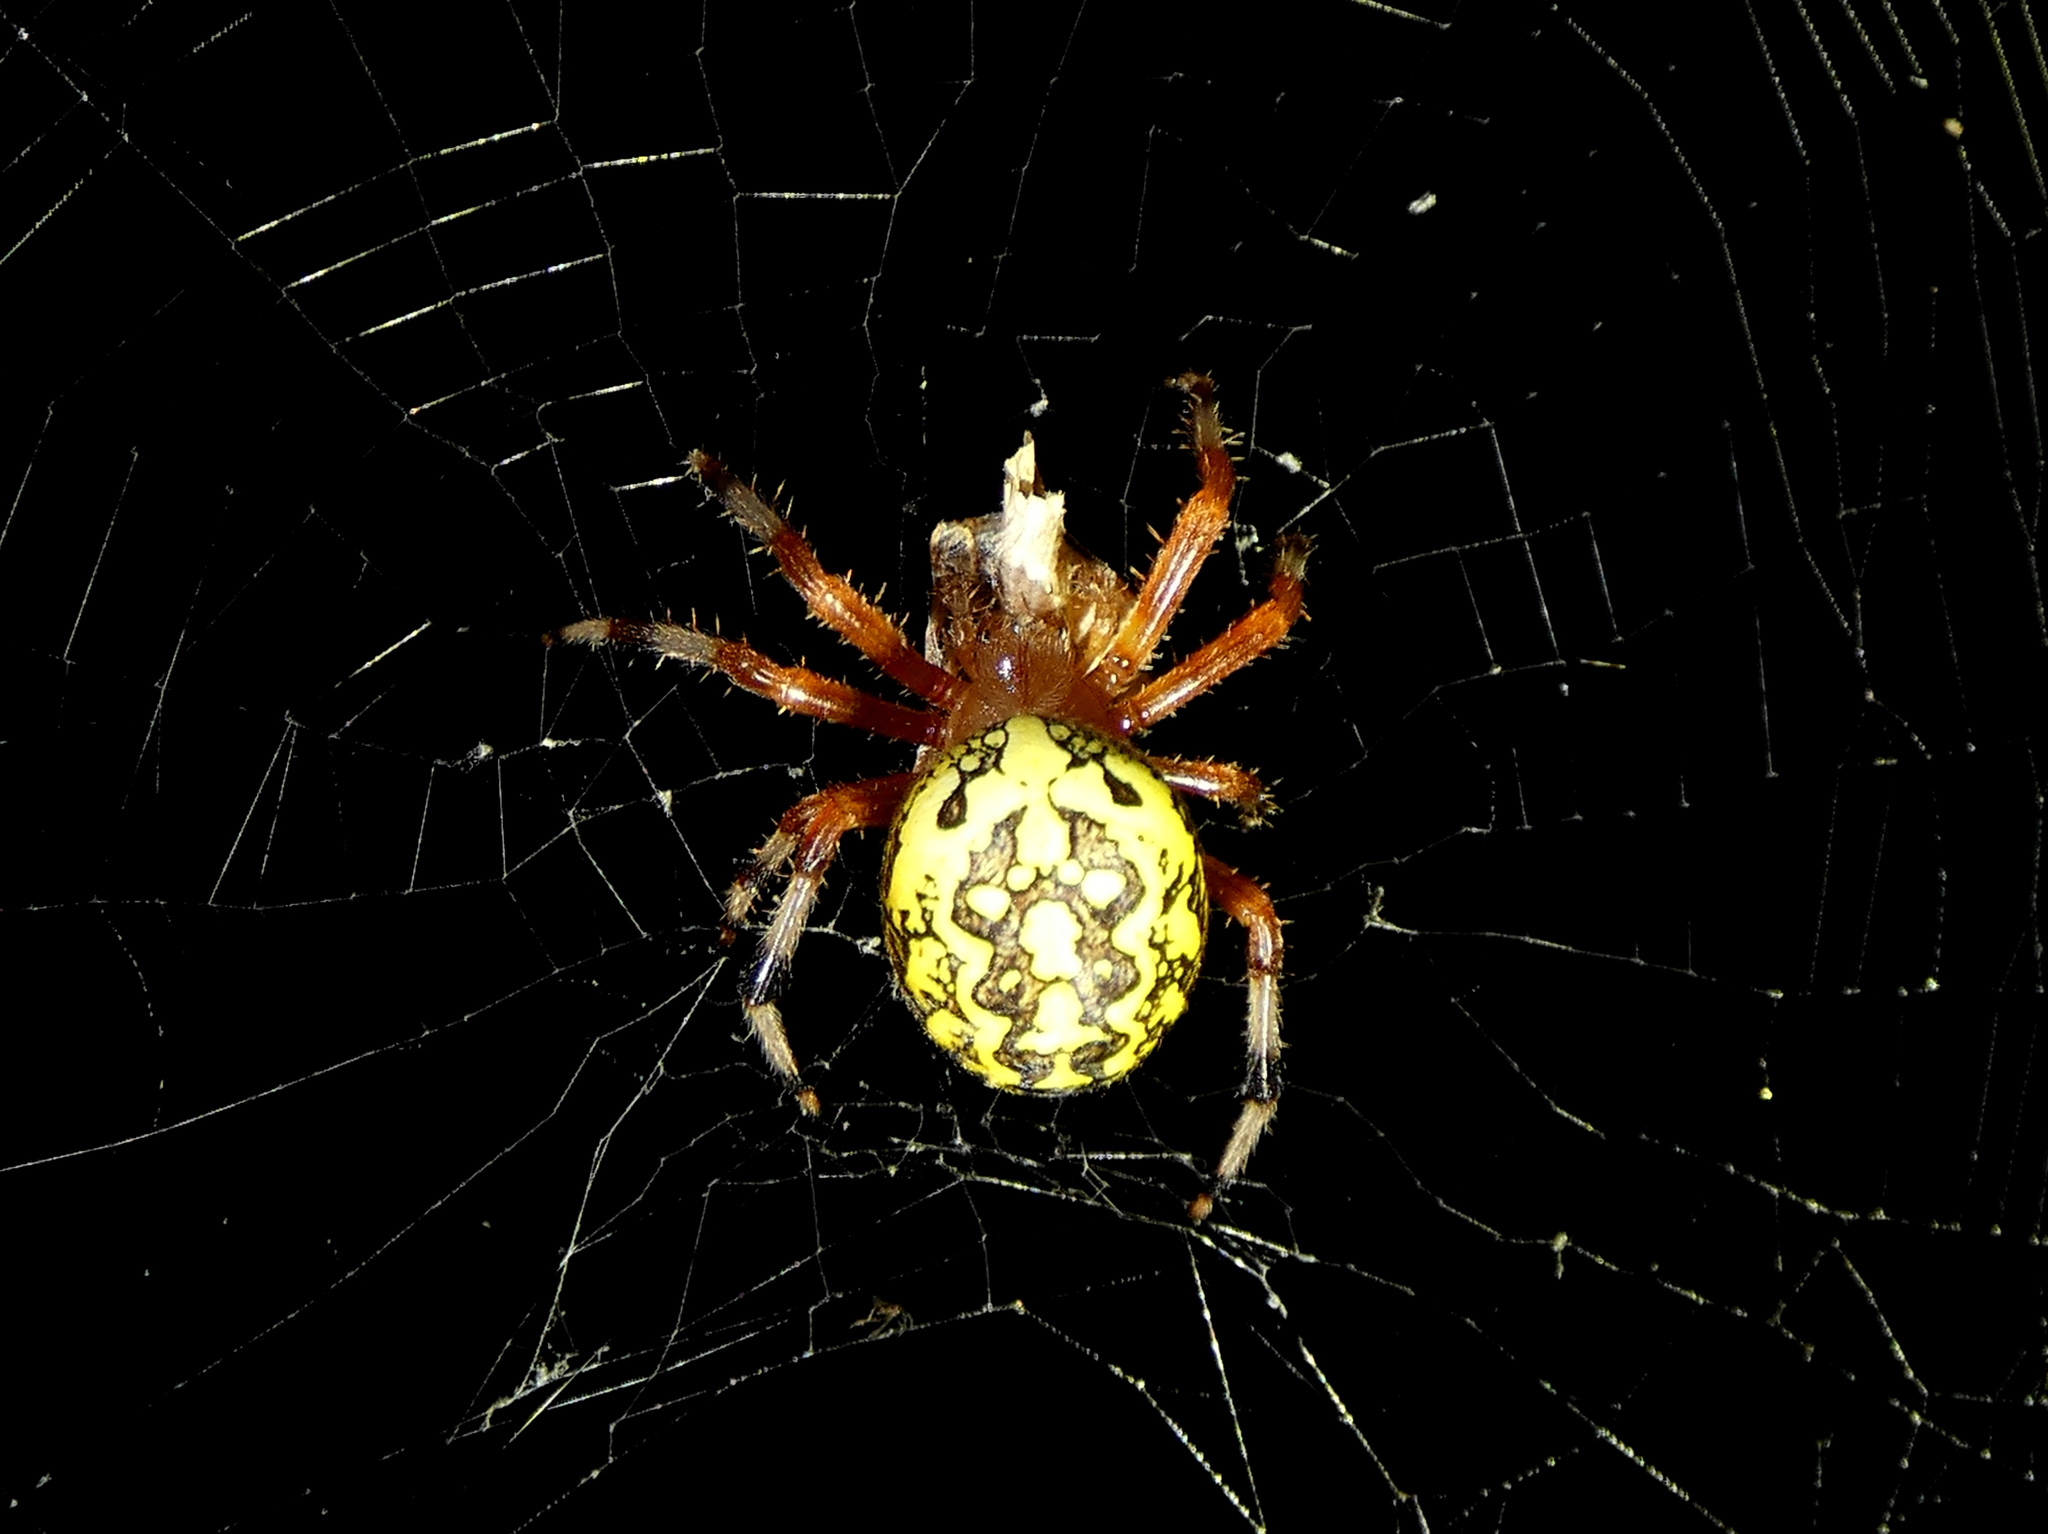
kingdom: Animalia
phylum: Arthropoda
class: Arachnida
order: Araneae
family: Araneidae
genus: Araneus
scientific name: Araneus marmoreus
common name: Marbled orbweaver
